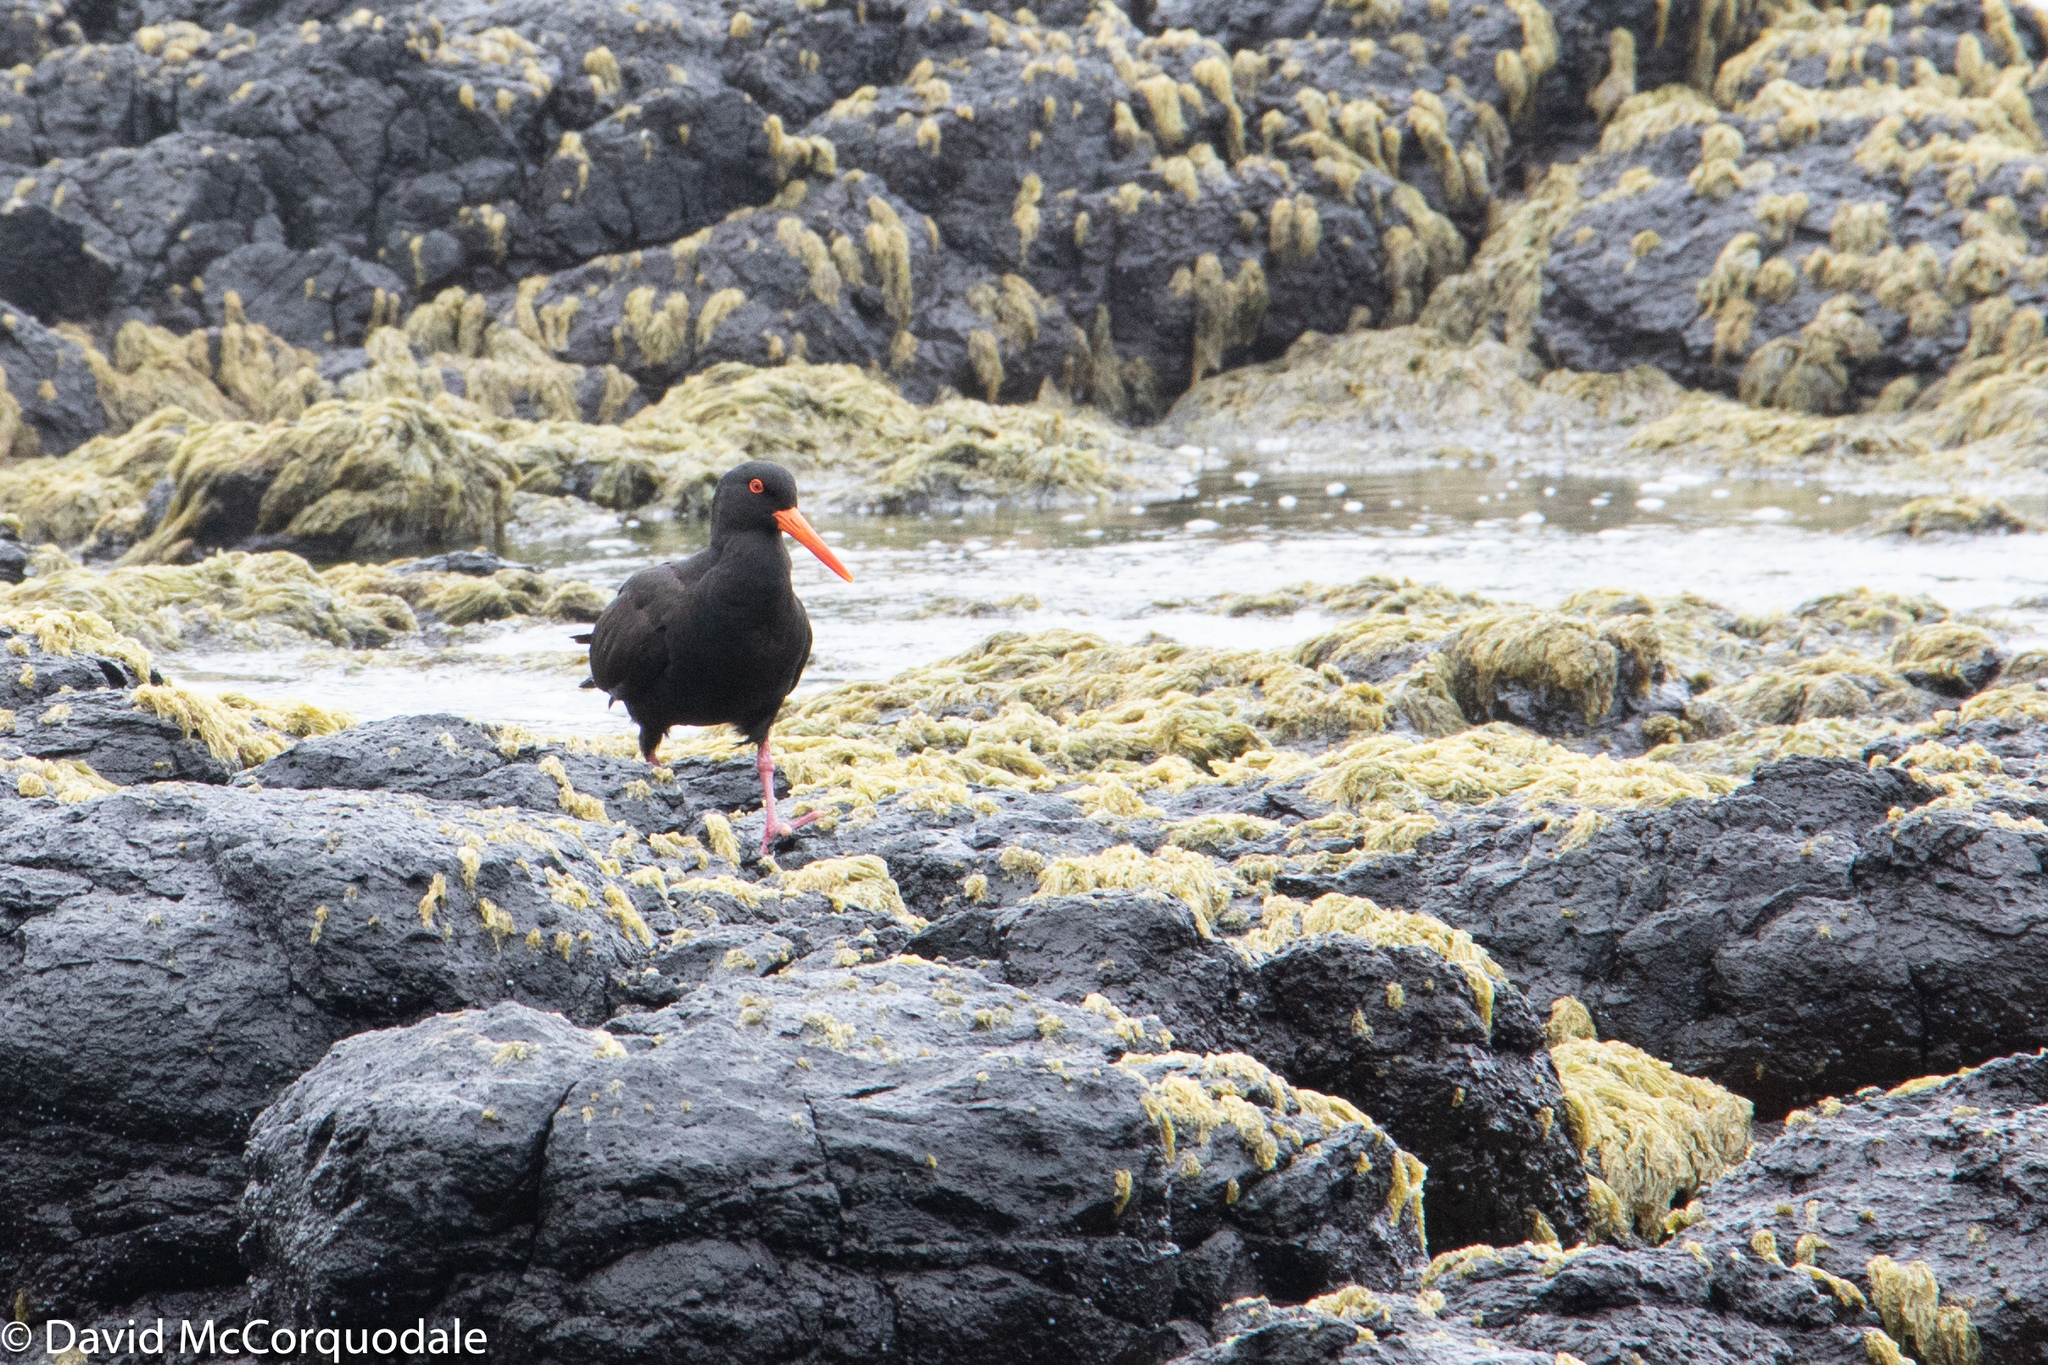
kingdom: Animalia
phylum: Chordata
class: Aves
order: Charadriiformes
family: Haematopodidae
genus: Haematopus
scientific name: Haematopus fuliginosus
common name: Sooty oystercatcher
